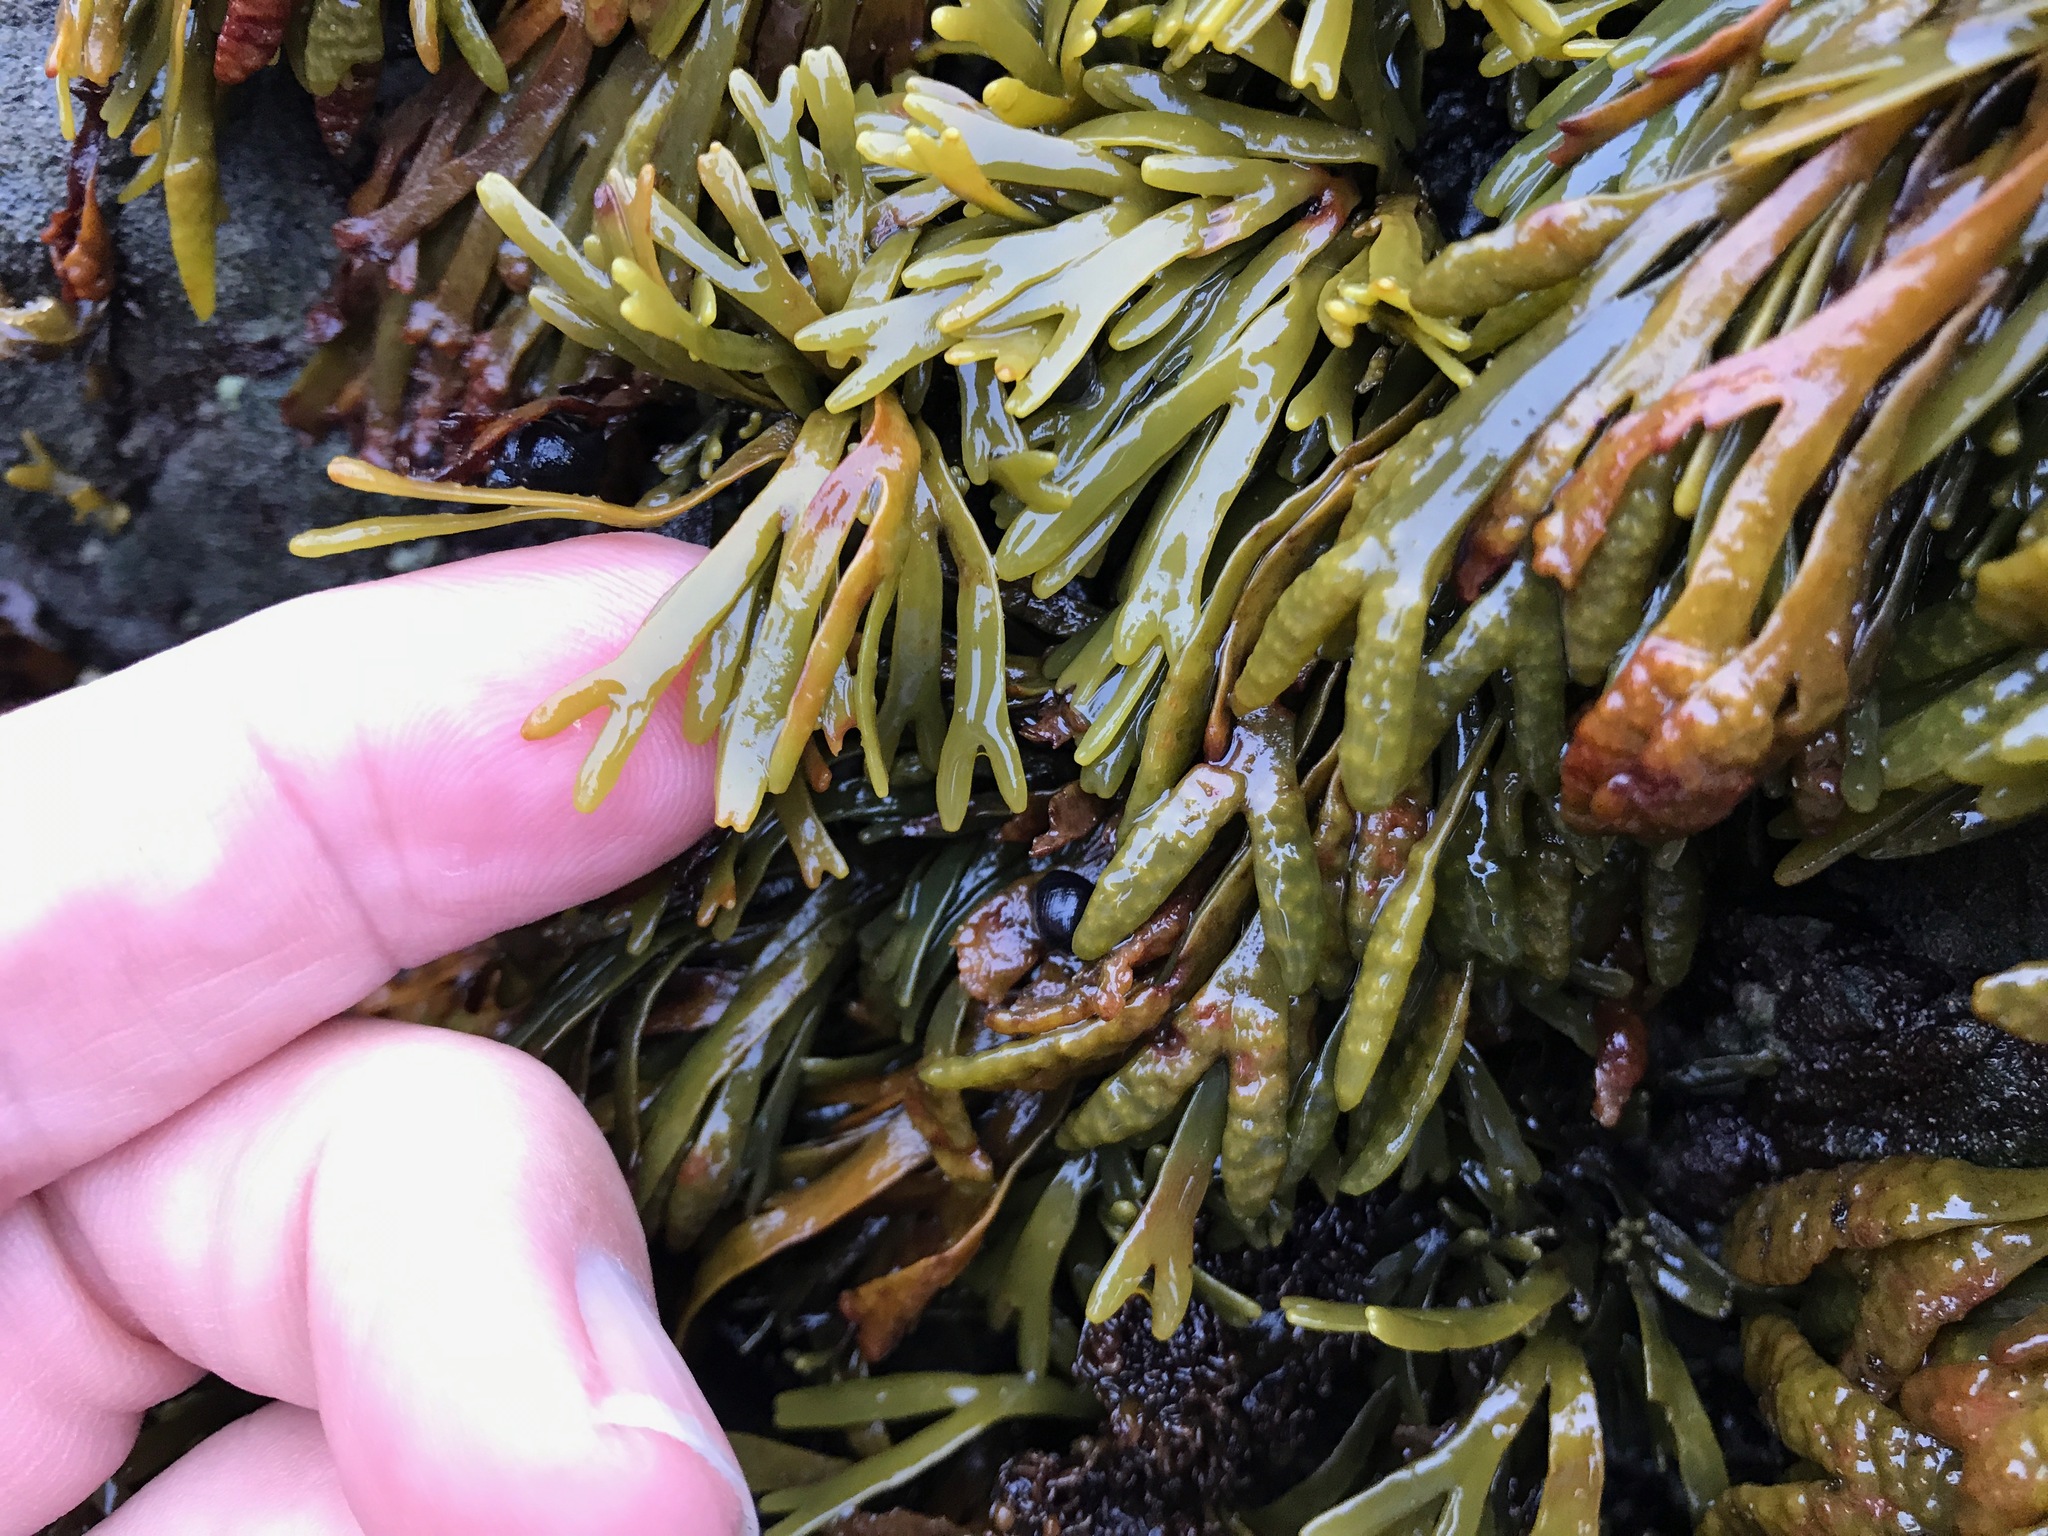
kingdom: Chromista
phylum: Ochrophyta
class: Phaeophyceae
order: Fucales
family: Fucaceae
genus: Pelvetiopsis
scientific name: Pelvetiopsis limitata
